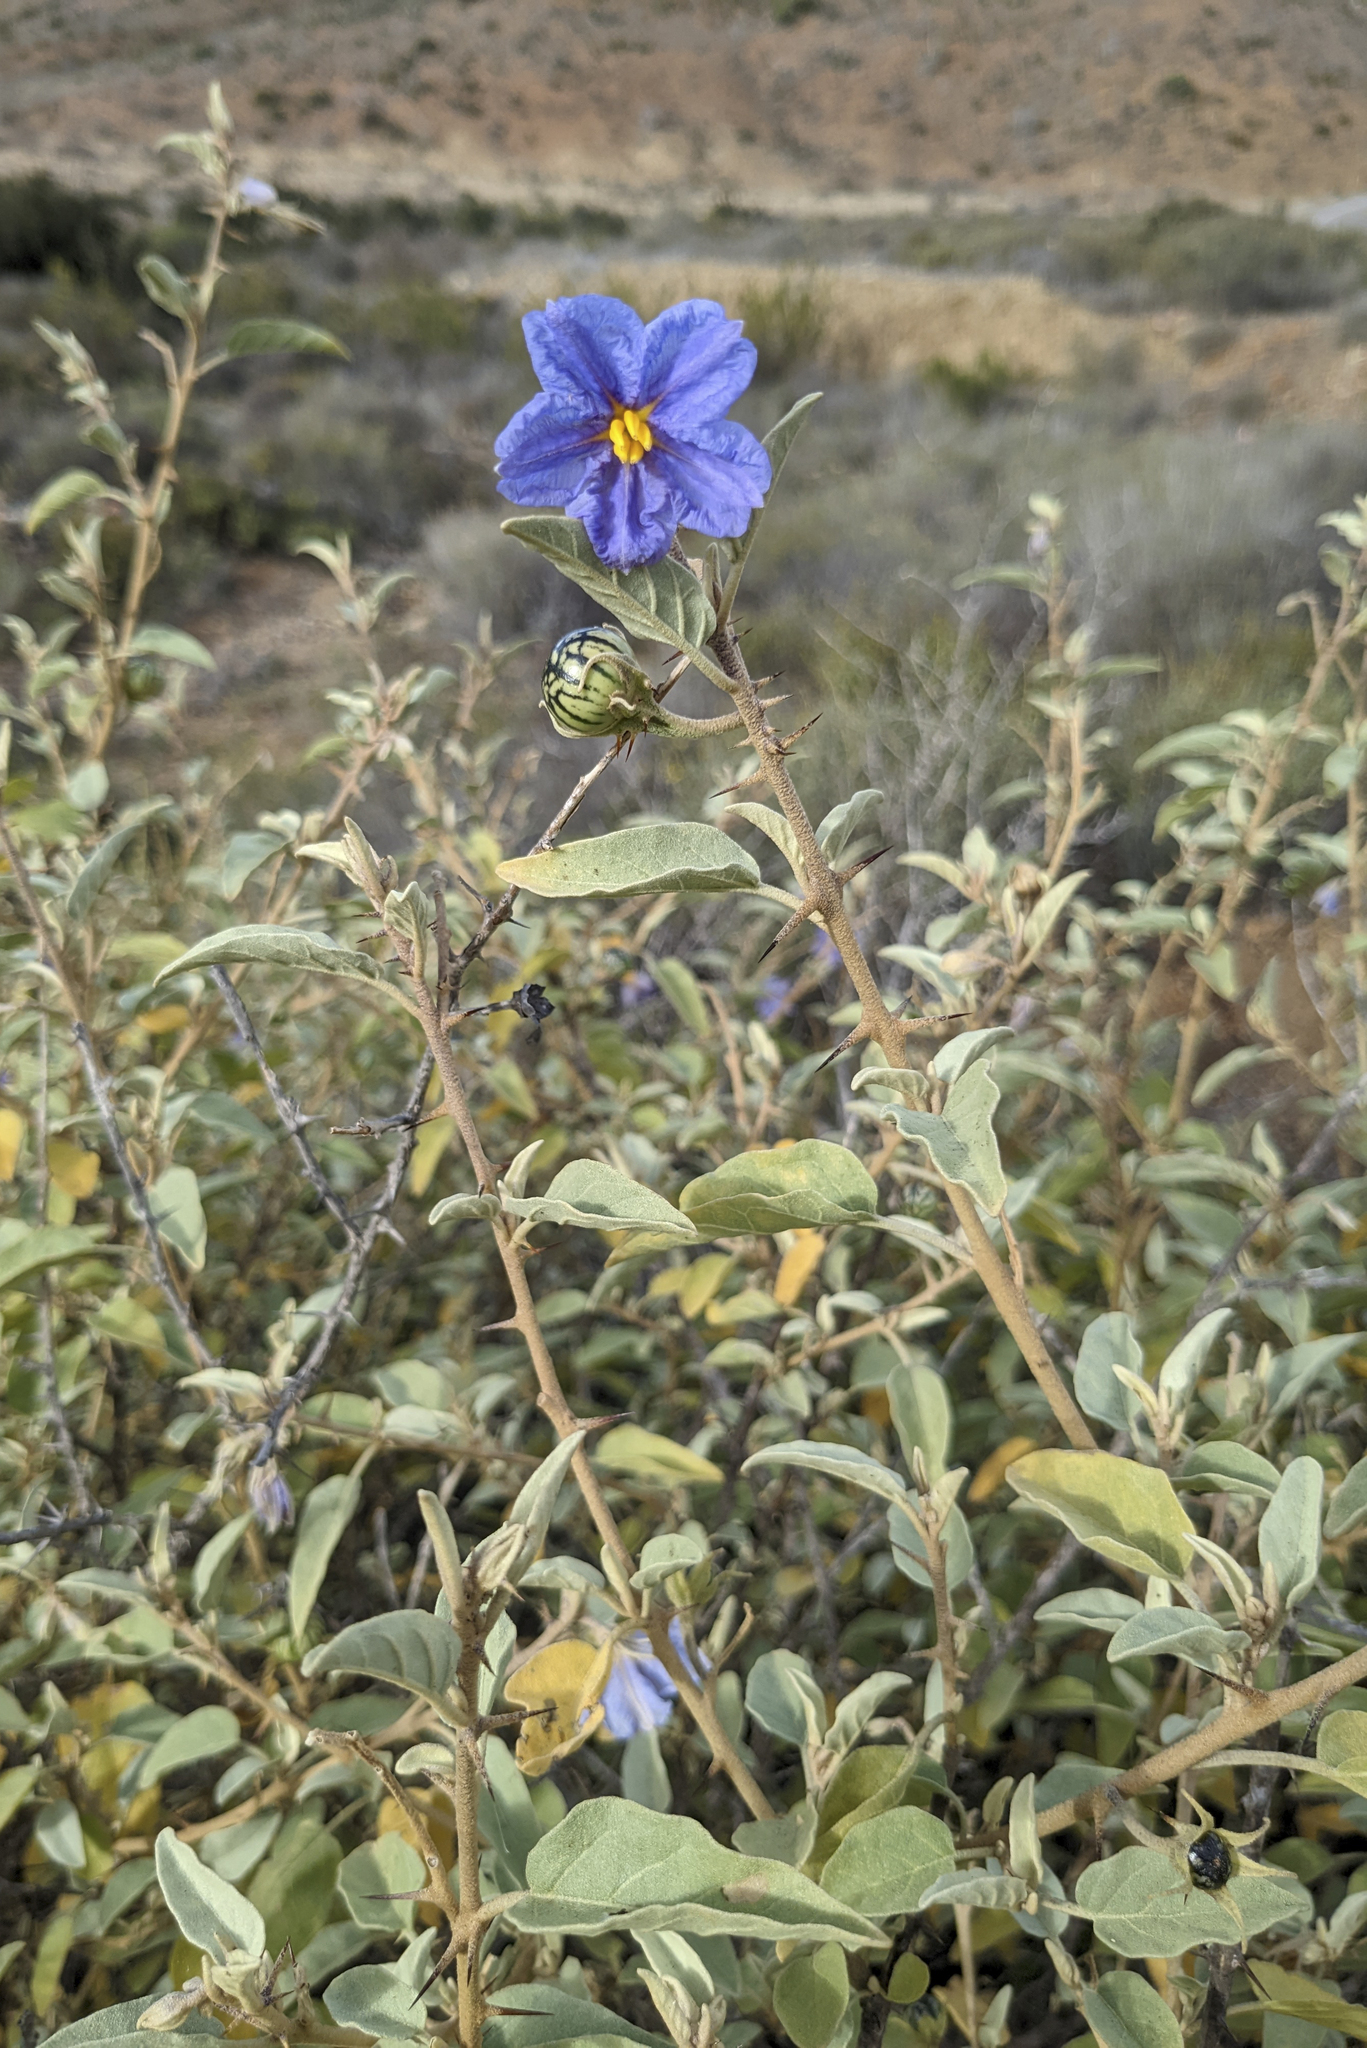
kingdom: Plantae
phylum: Tracheophyta
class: Magnoliopsida
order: Solanales
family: Solanaceae
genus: Solanum
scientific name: Solanum hindsianum
